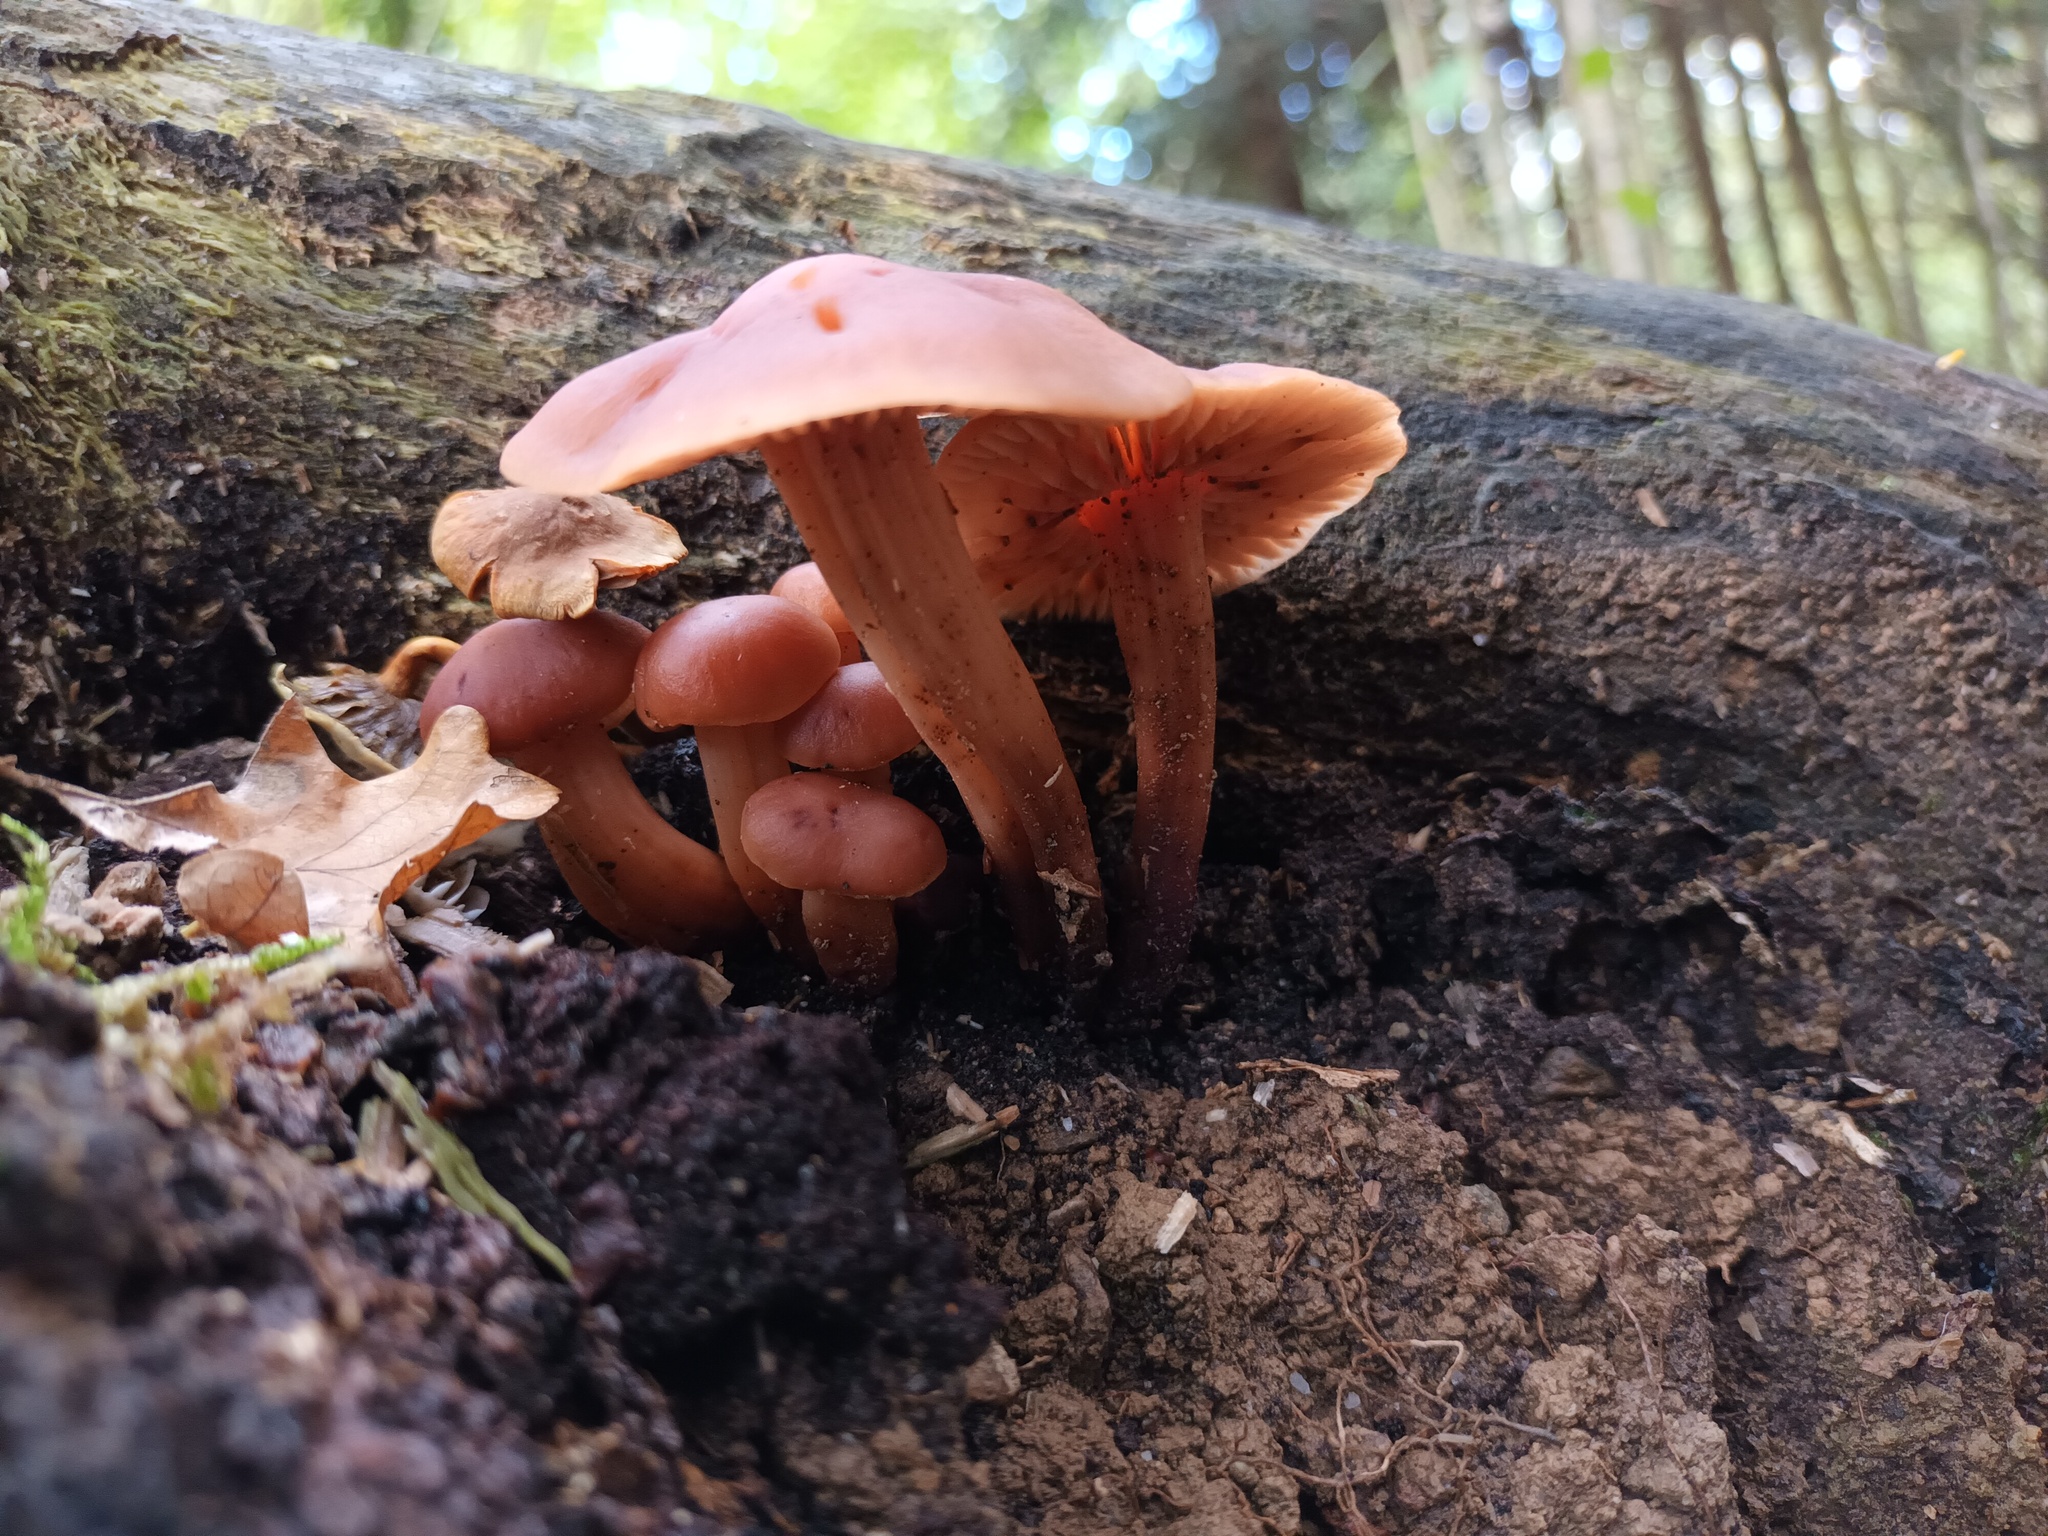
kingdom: Fungi
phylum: Basidiomycota
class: Agaricomycetes
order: Agaricales
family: Omphalotaceae
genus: Gymnopus
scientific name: Gymnopus fusipes
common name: Spindle shank
